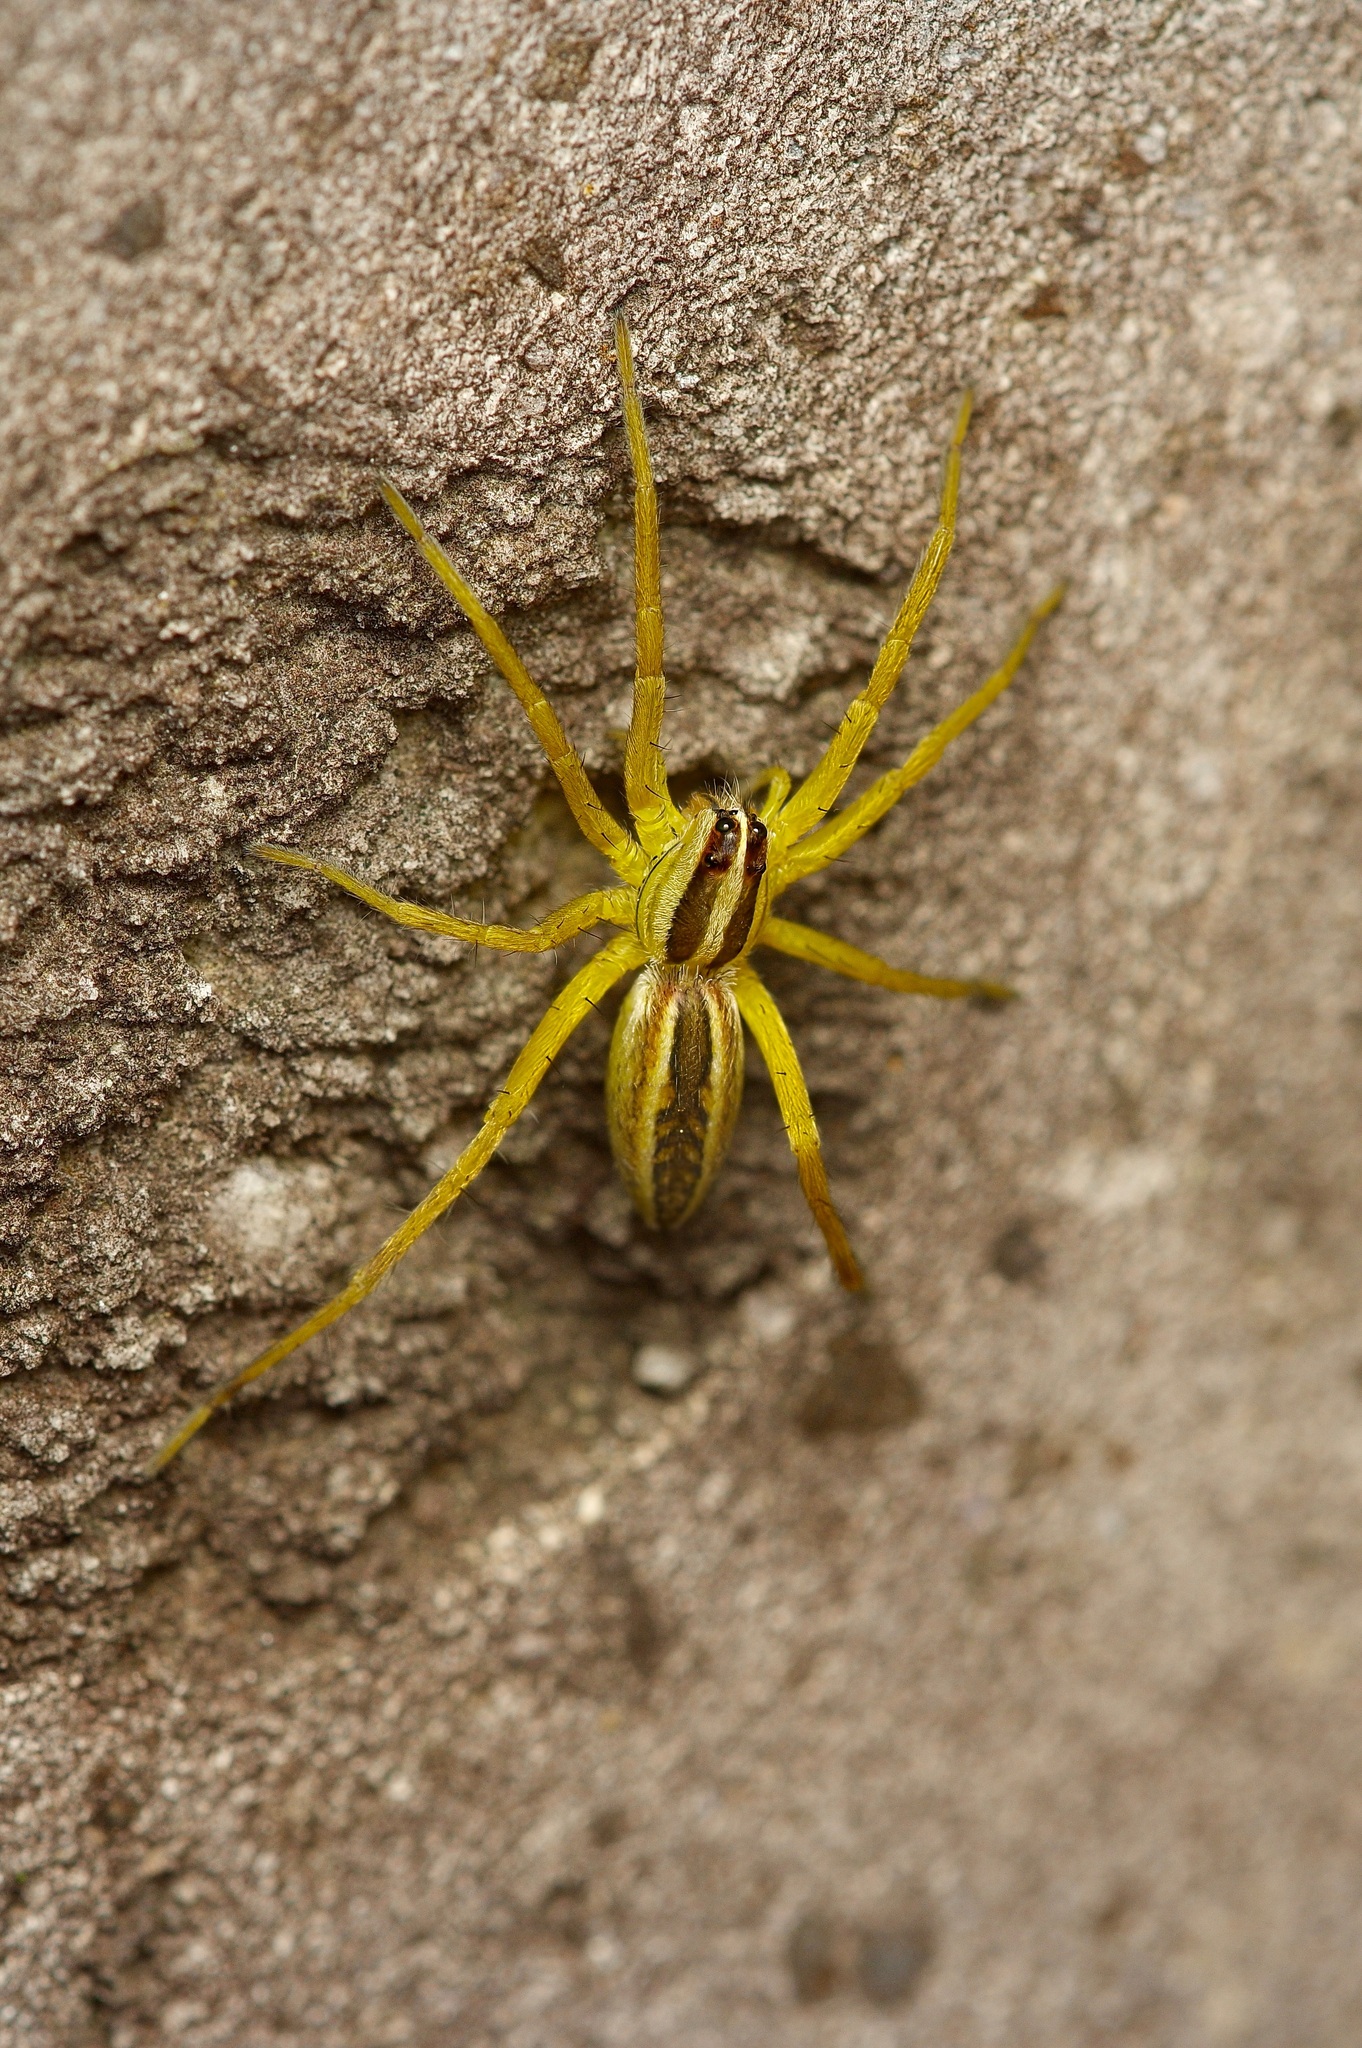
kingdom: Animalia
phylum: Arthropoda
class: Arachnida
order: Araneae
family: Lycosidae
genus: Rabidosa
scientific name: Rabidosa rabida
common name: Rabid wolf spider
